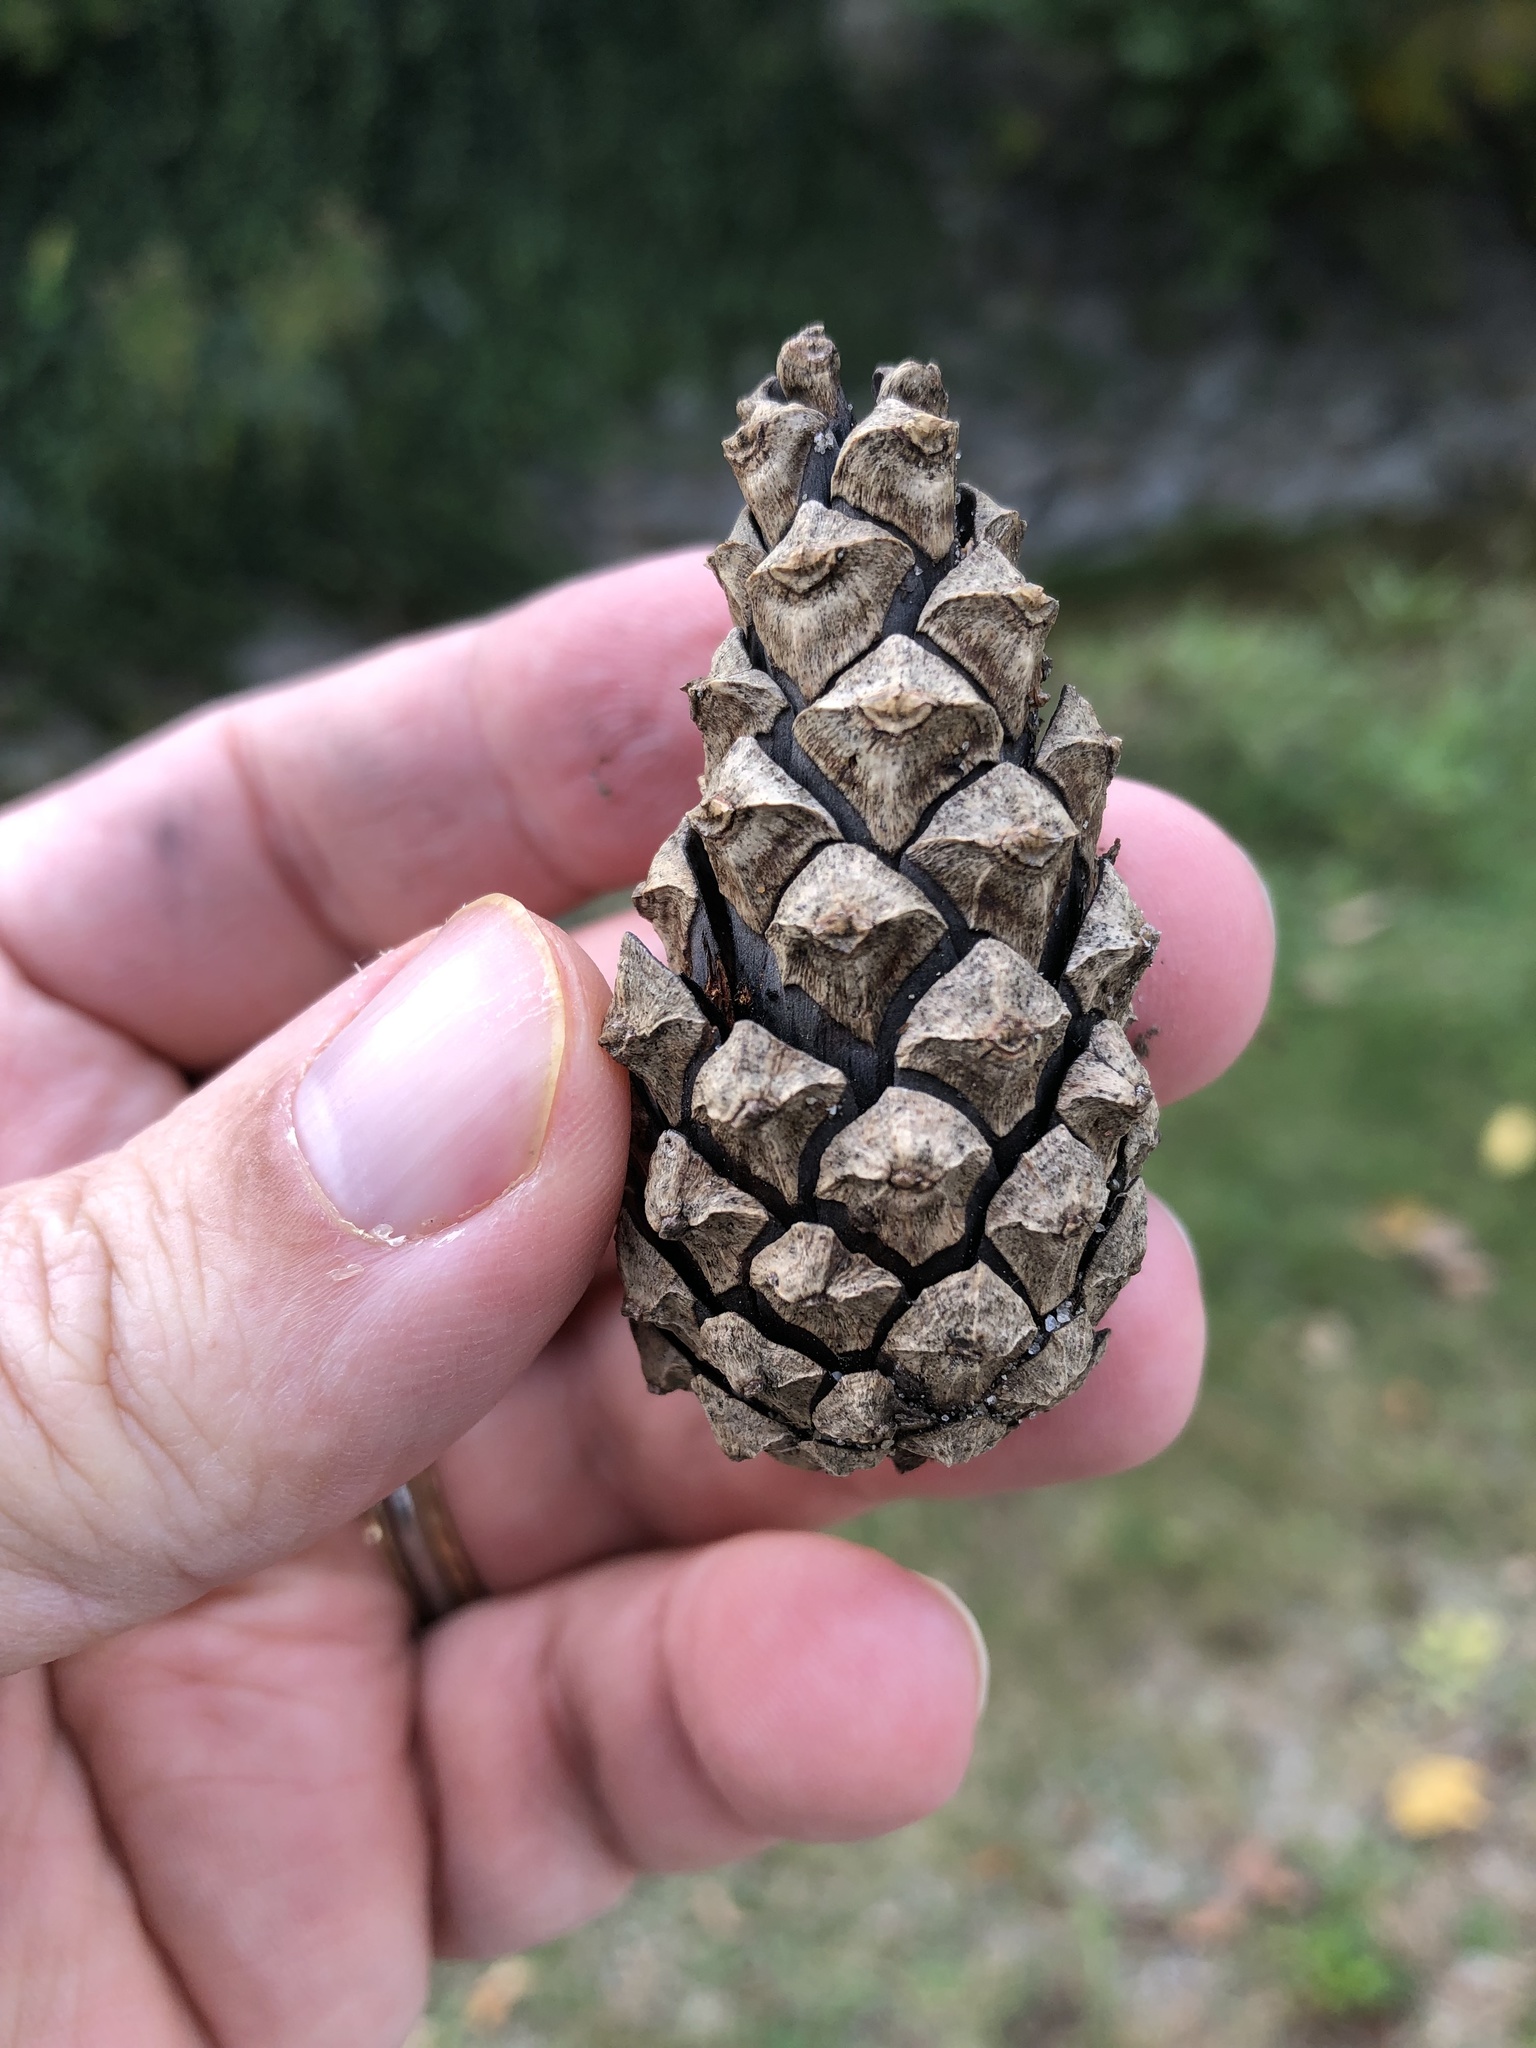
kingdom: Plantae
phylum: Tracheophyta
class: Pinopsida
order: Pinales
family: Pinaceae
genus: Pinus
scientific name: Pinus nigra
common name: Austrian pine
